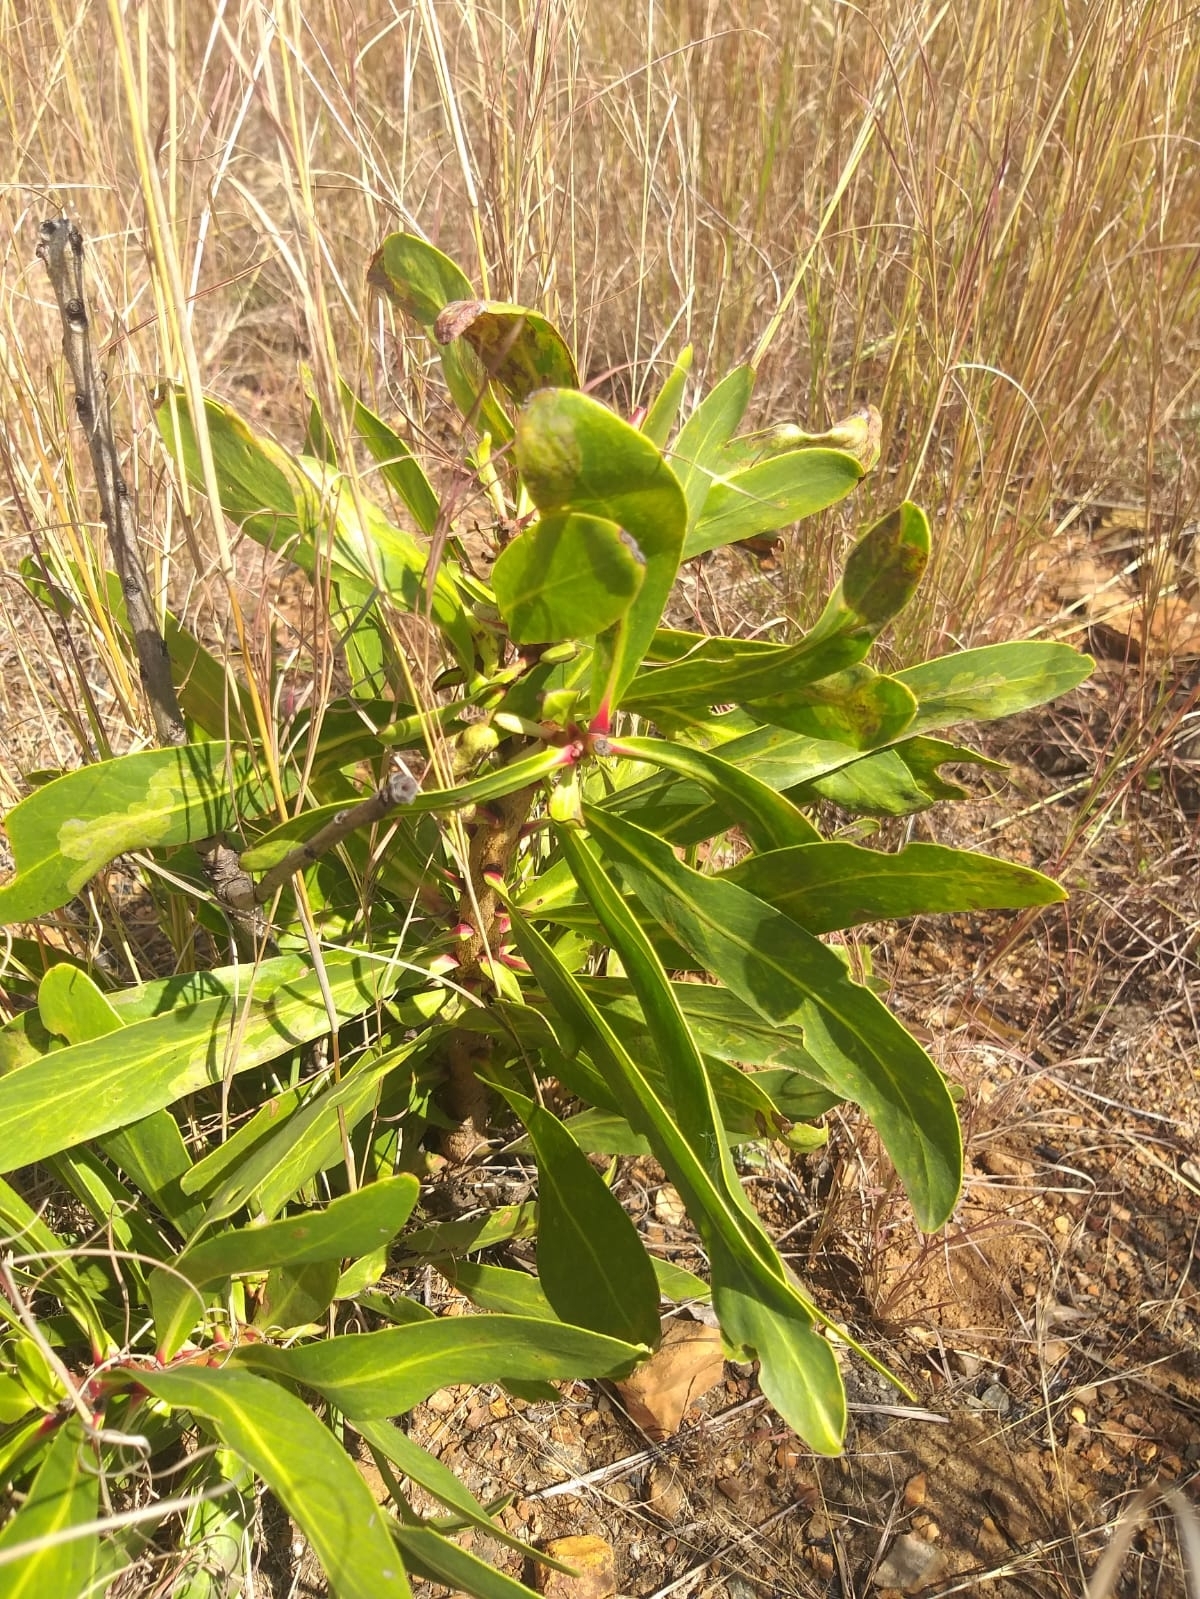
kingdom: Plantae
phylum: Tracheophyta
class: Magnoliopsida
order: Proteales
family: Proteaceae
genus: Protea
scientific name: Protea caffra
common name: Common sugarbush
